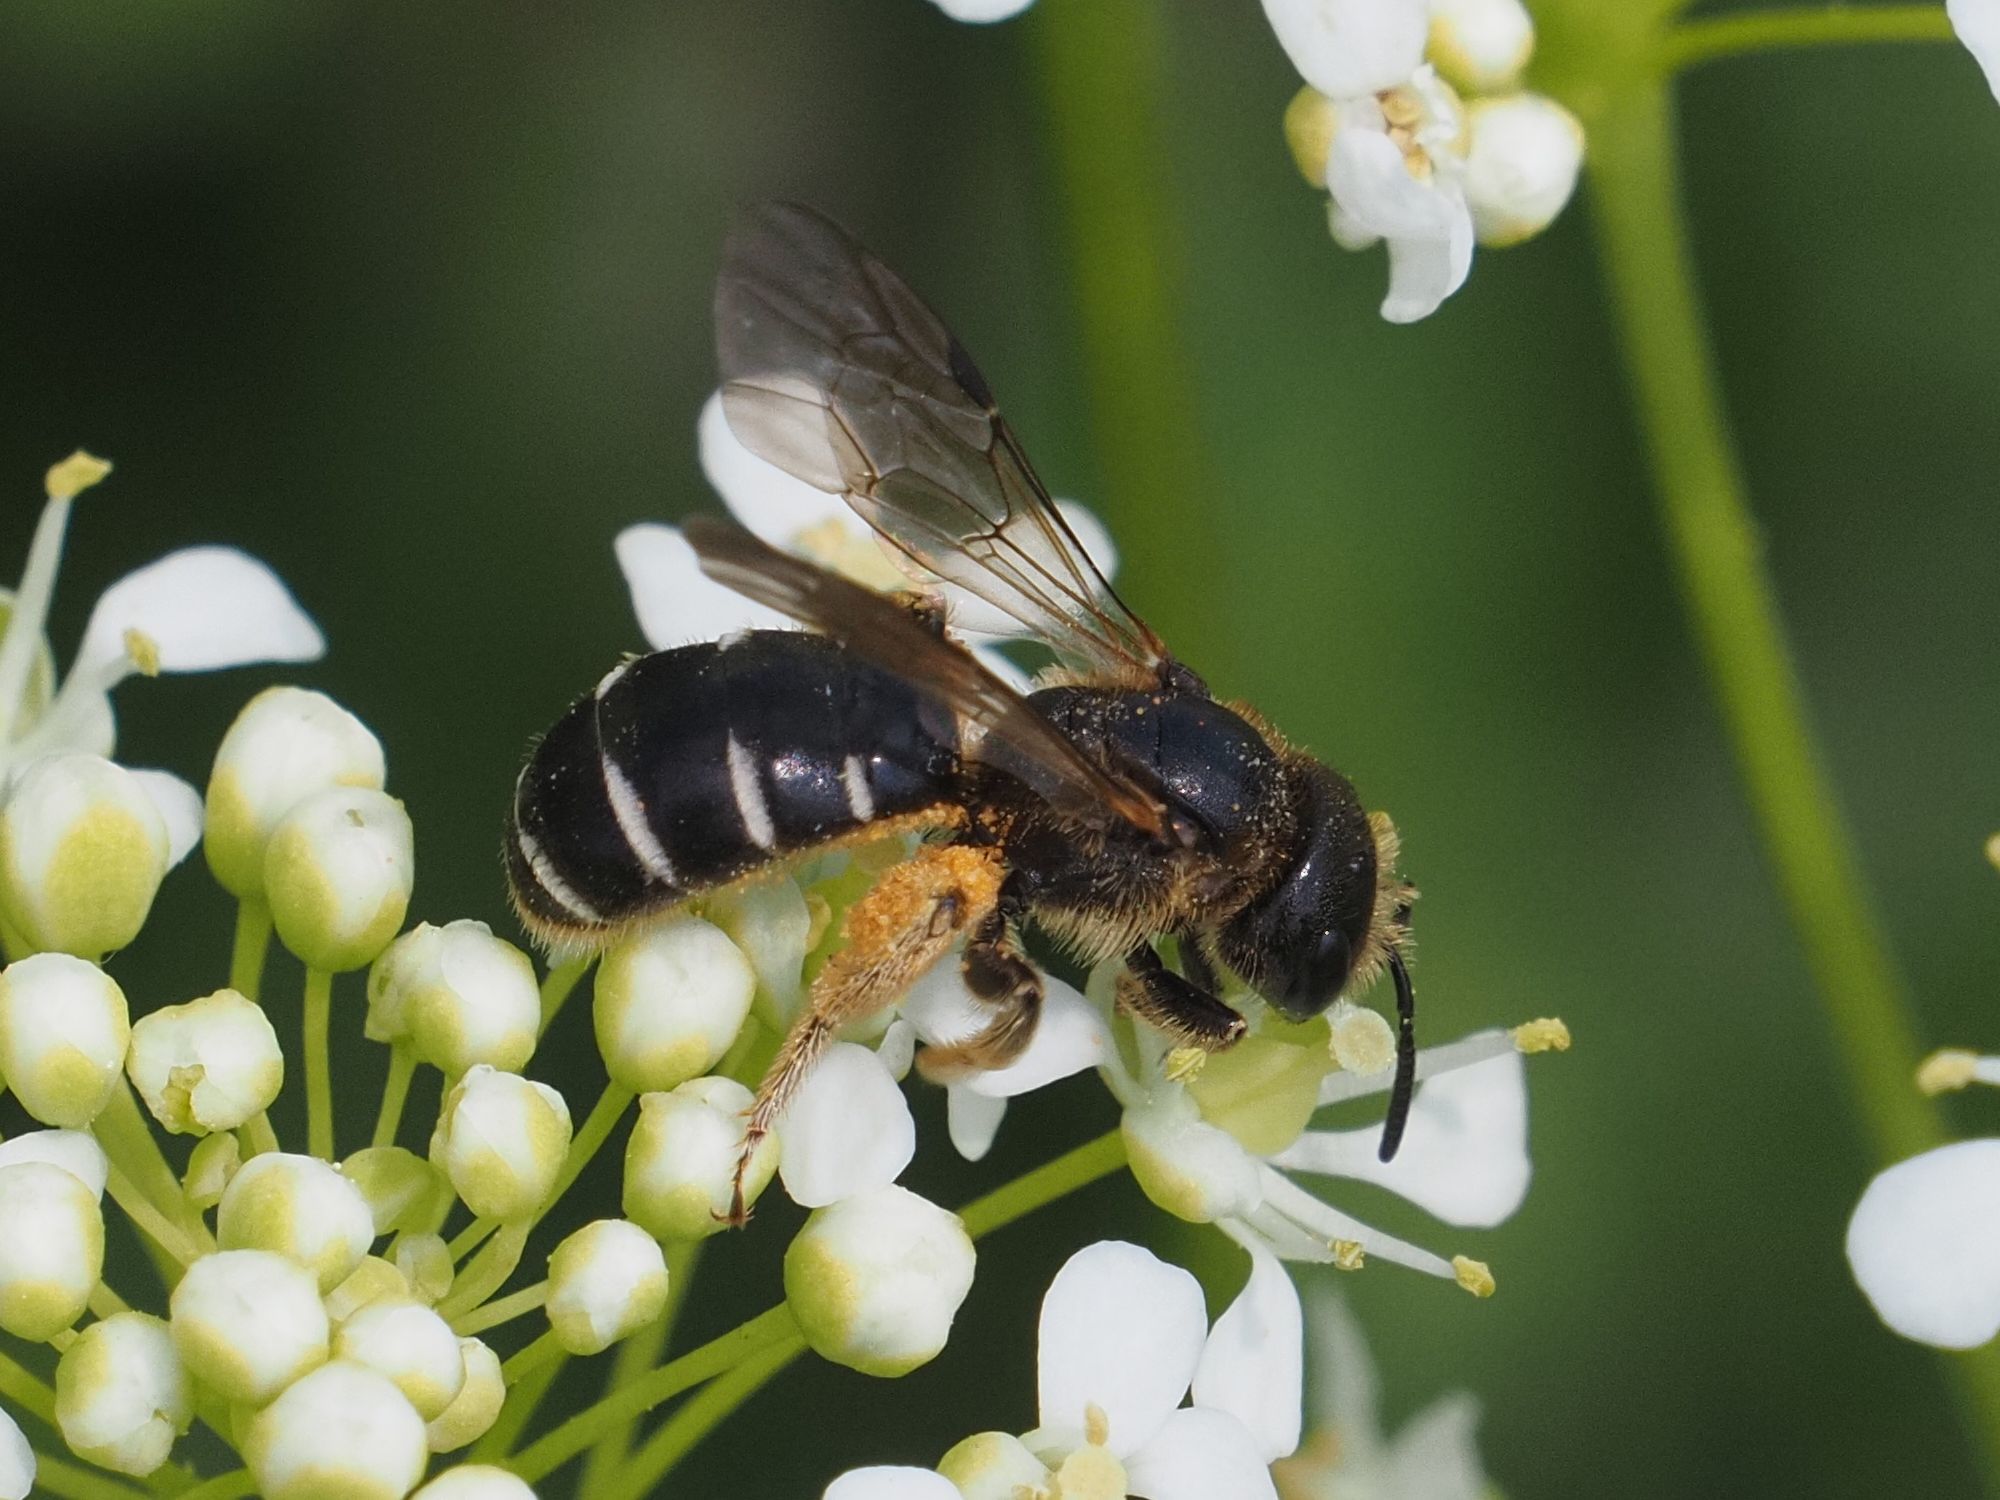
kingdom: Animalia
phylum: Arthropoda
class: Insecta
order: Hymenoptera
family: Halictidae
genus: Halictus
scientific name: Halictus maculatus
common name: Box-heades furrow bee
